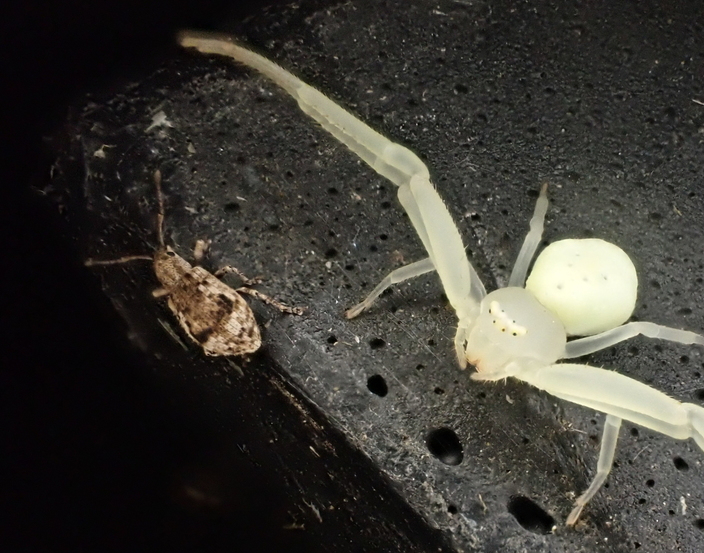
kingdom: Animalia
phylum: Arthropoda
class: Insecta
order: Coleoptera
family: Curculionidae
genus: Pseudoedophrys
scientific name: Pseudoedophrys hilleri
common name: Weevil
